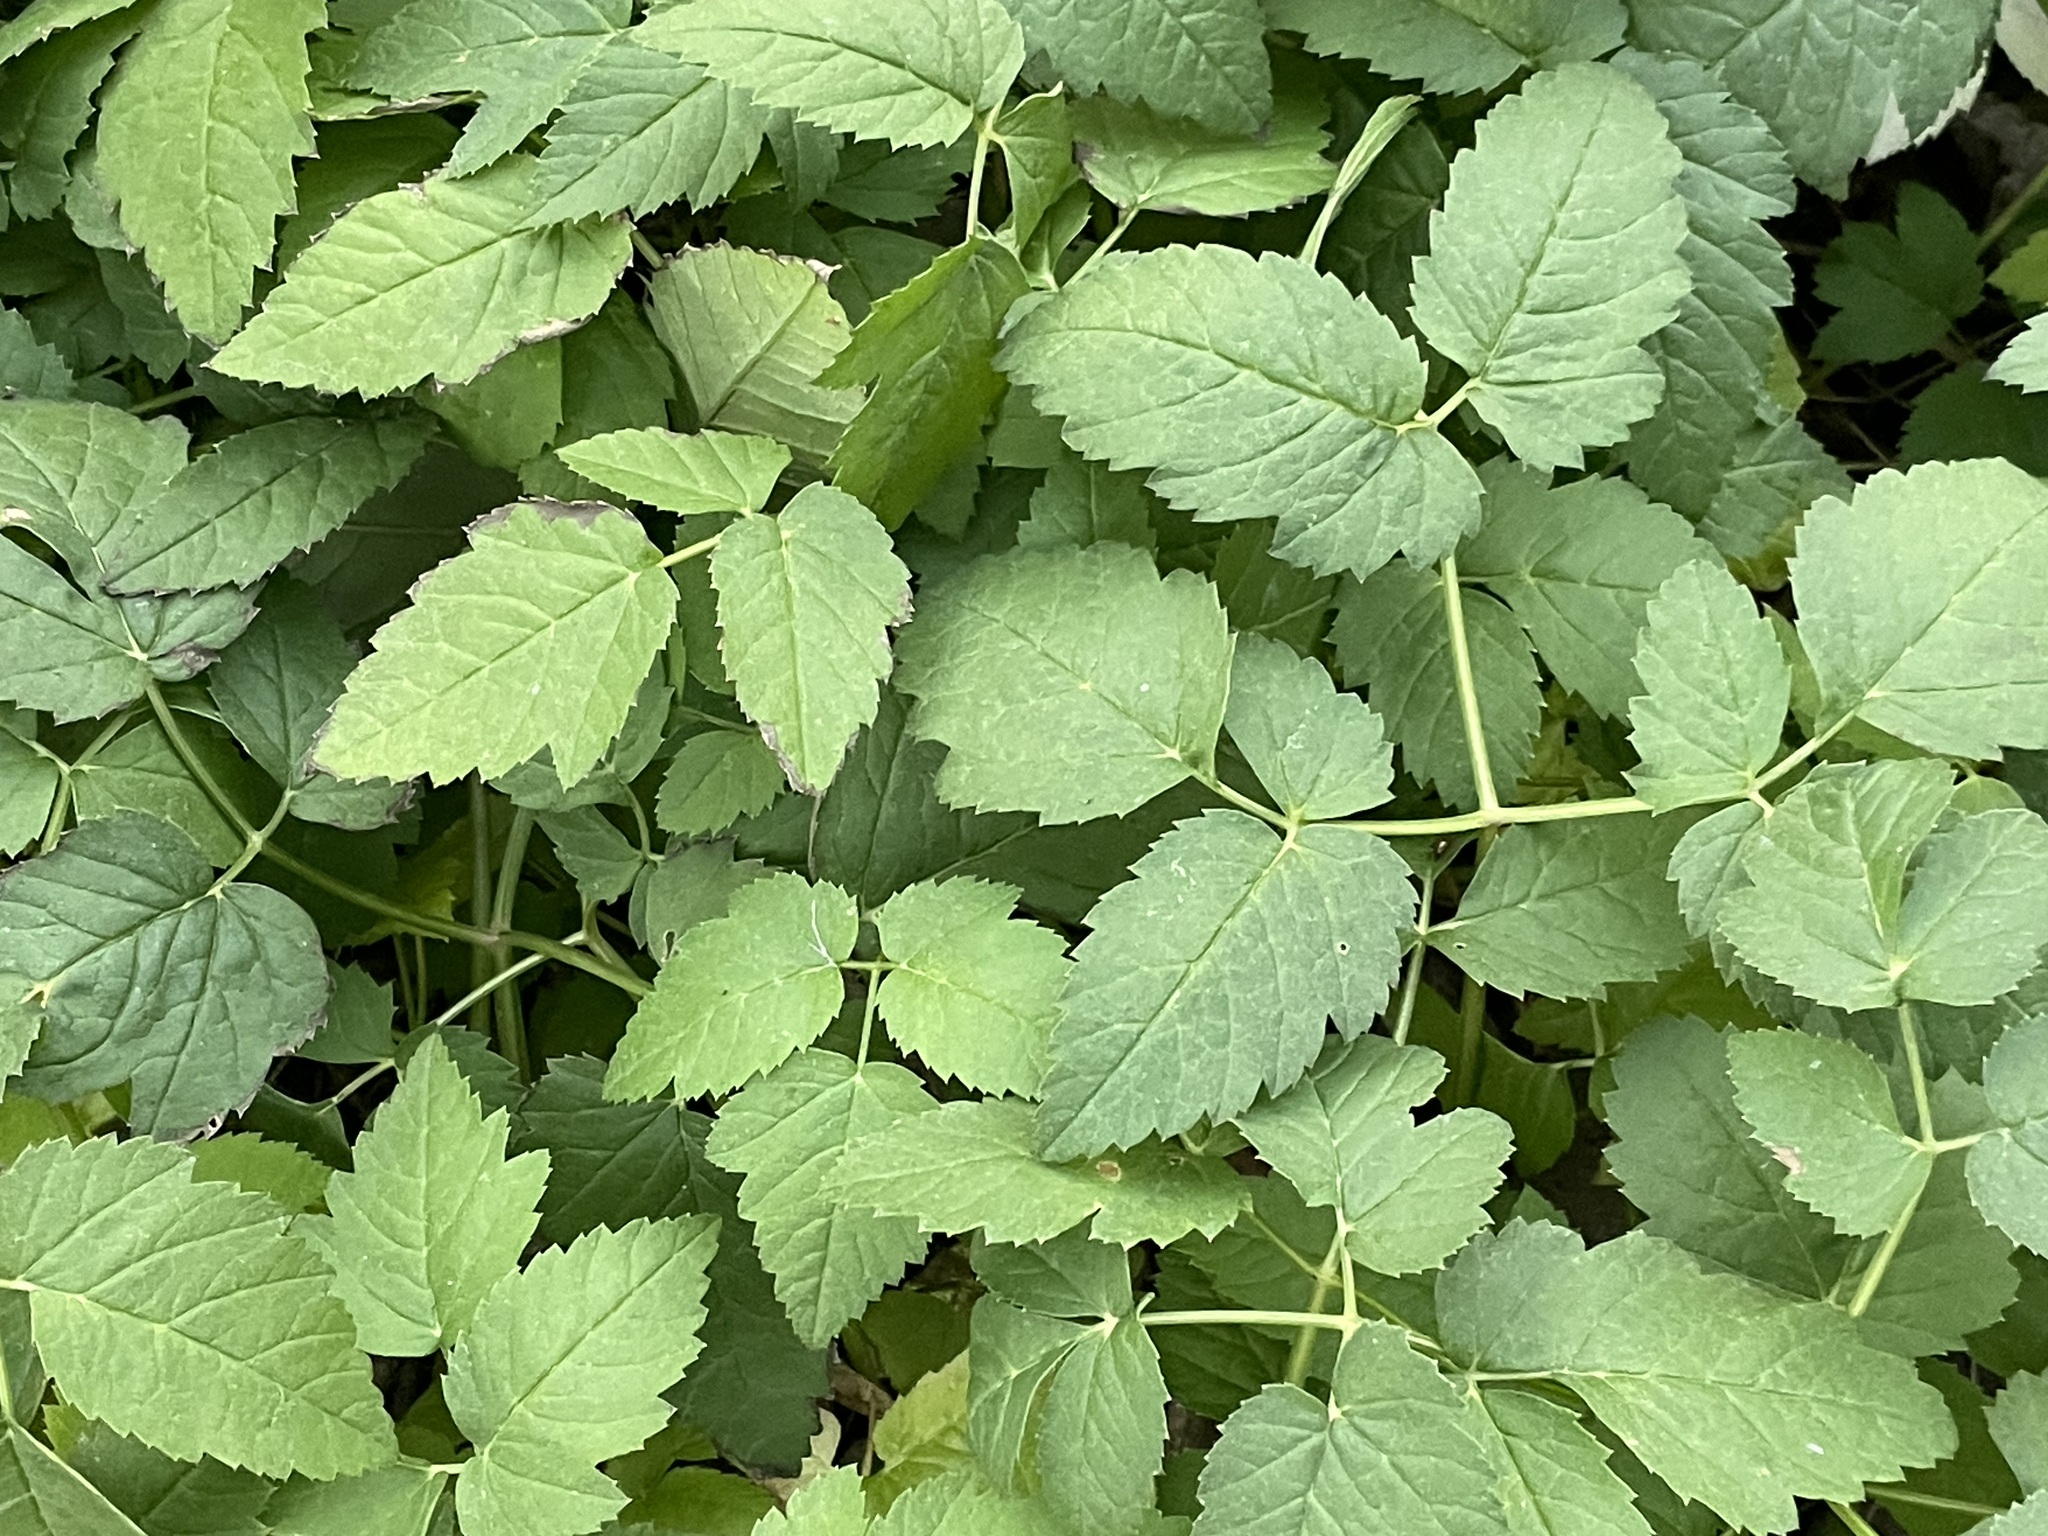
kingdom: Plantae
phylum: Tracheophyta
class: Magnoliopsida
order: Apiales
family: Apiaceae
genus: Aegopodium
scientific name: Aegopodium podagraria
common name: Ground-elder
